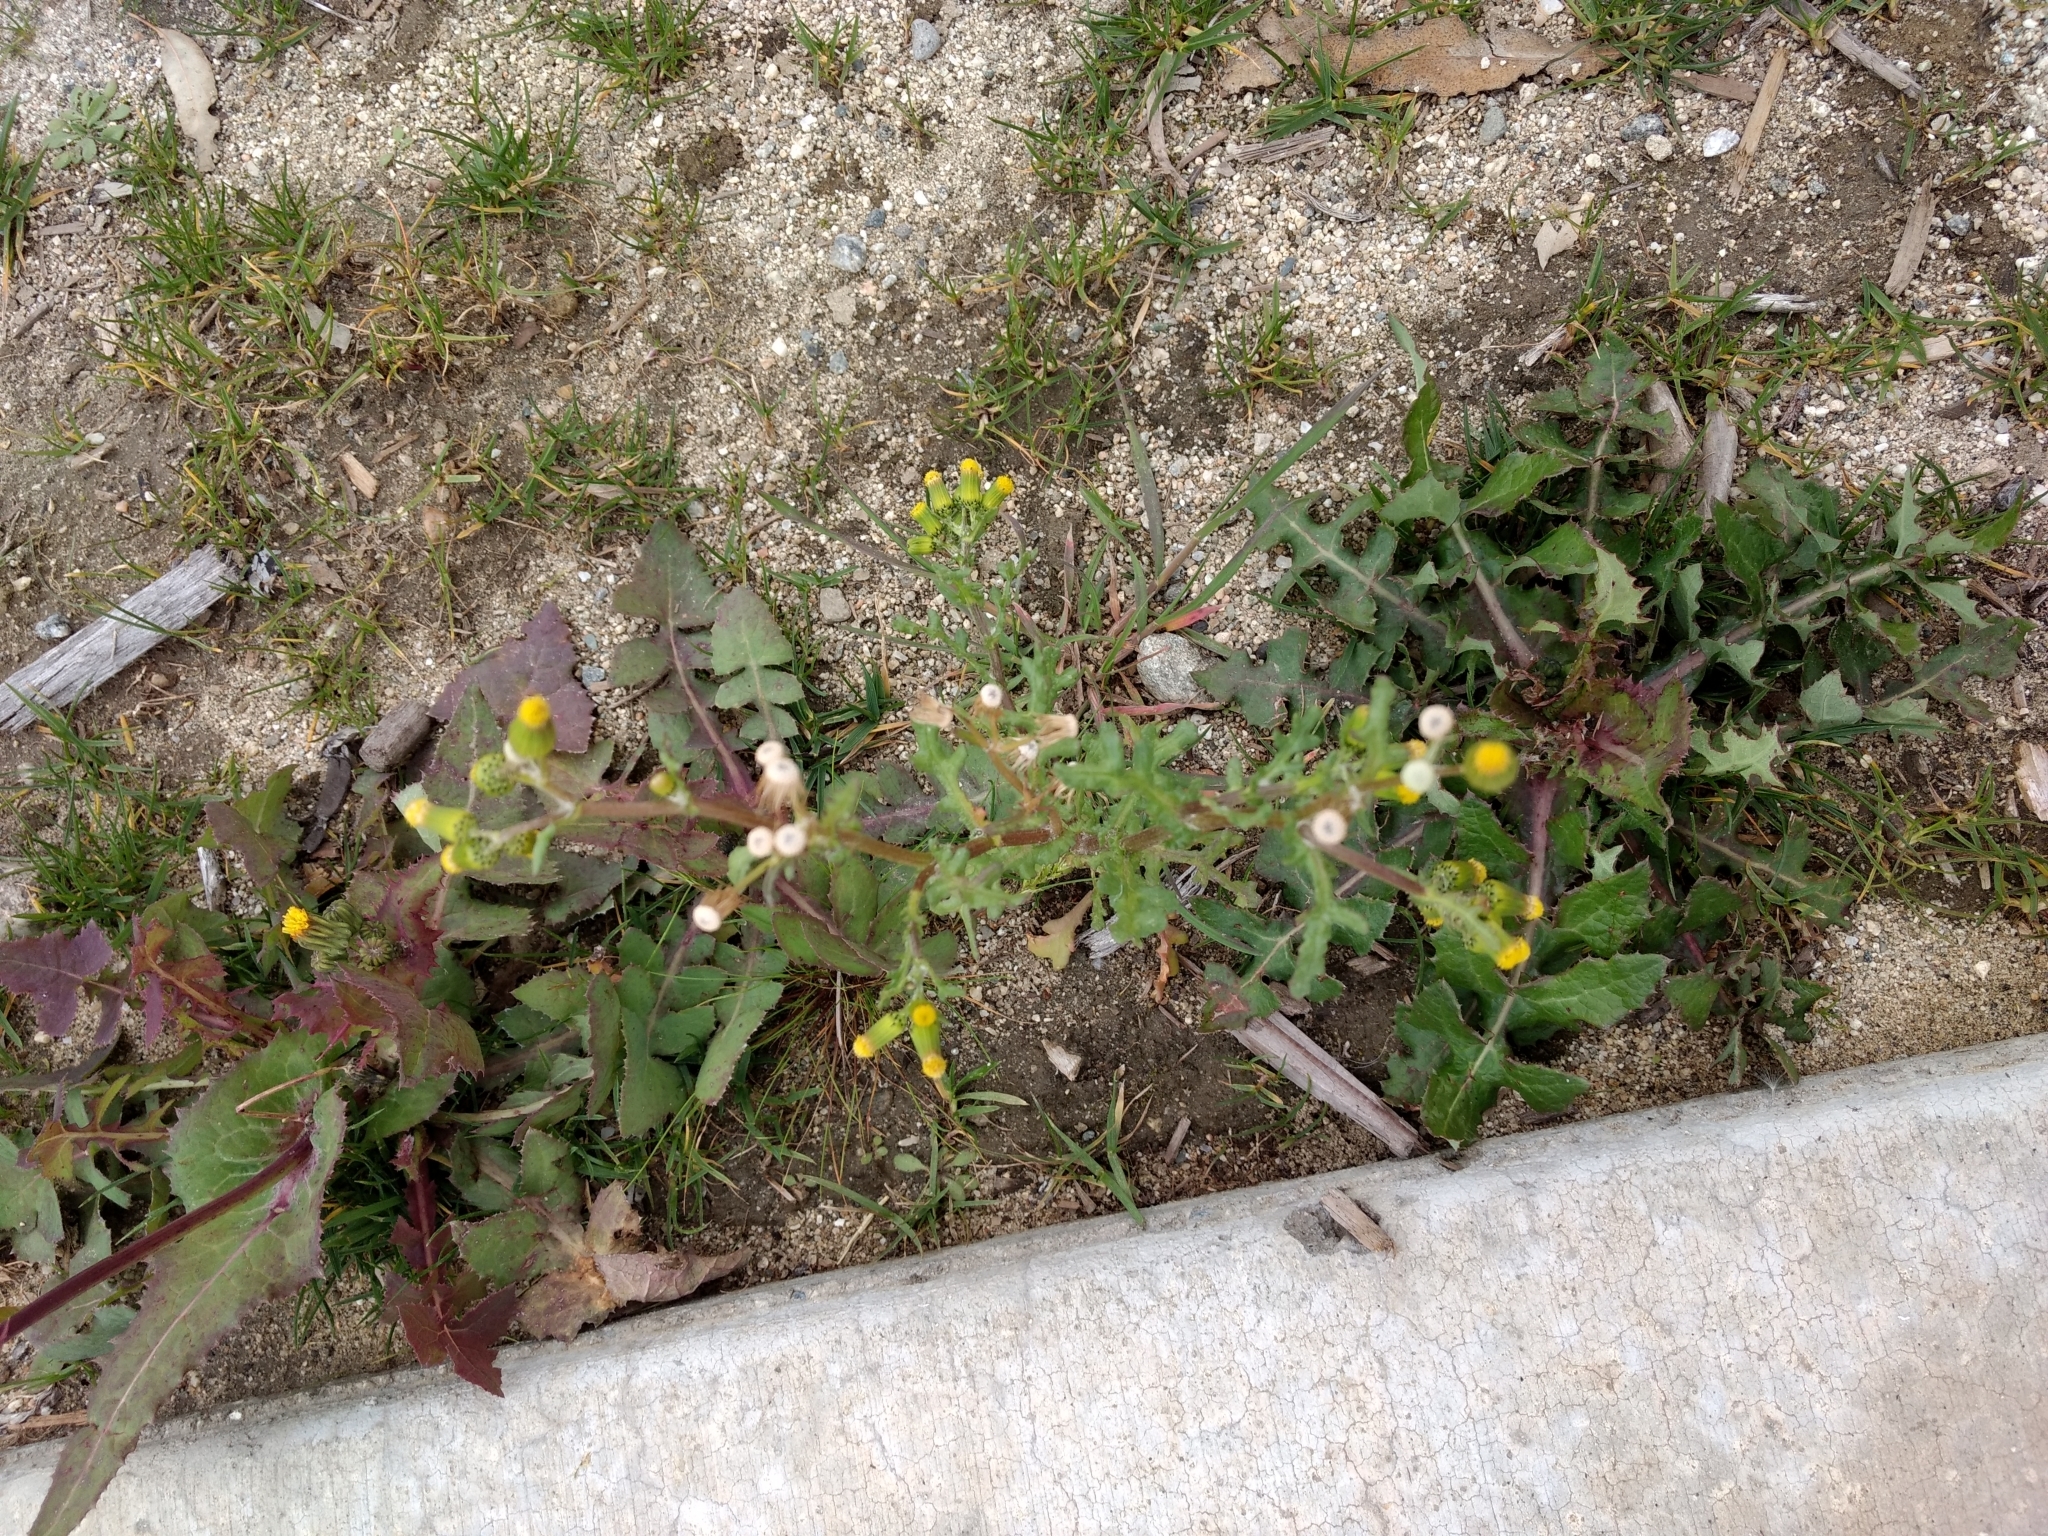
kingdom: Plantae
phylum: Tracheophyta
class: Magnoliopsida
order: Asterales
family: Asteraceae
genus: Senecio
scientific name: Senecio vulgaris
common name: Old-man-in-the-spring
